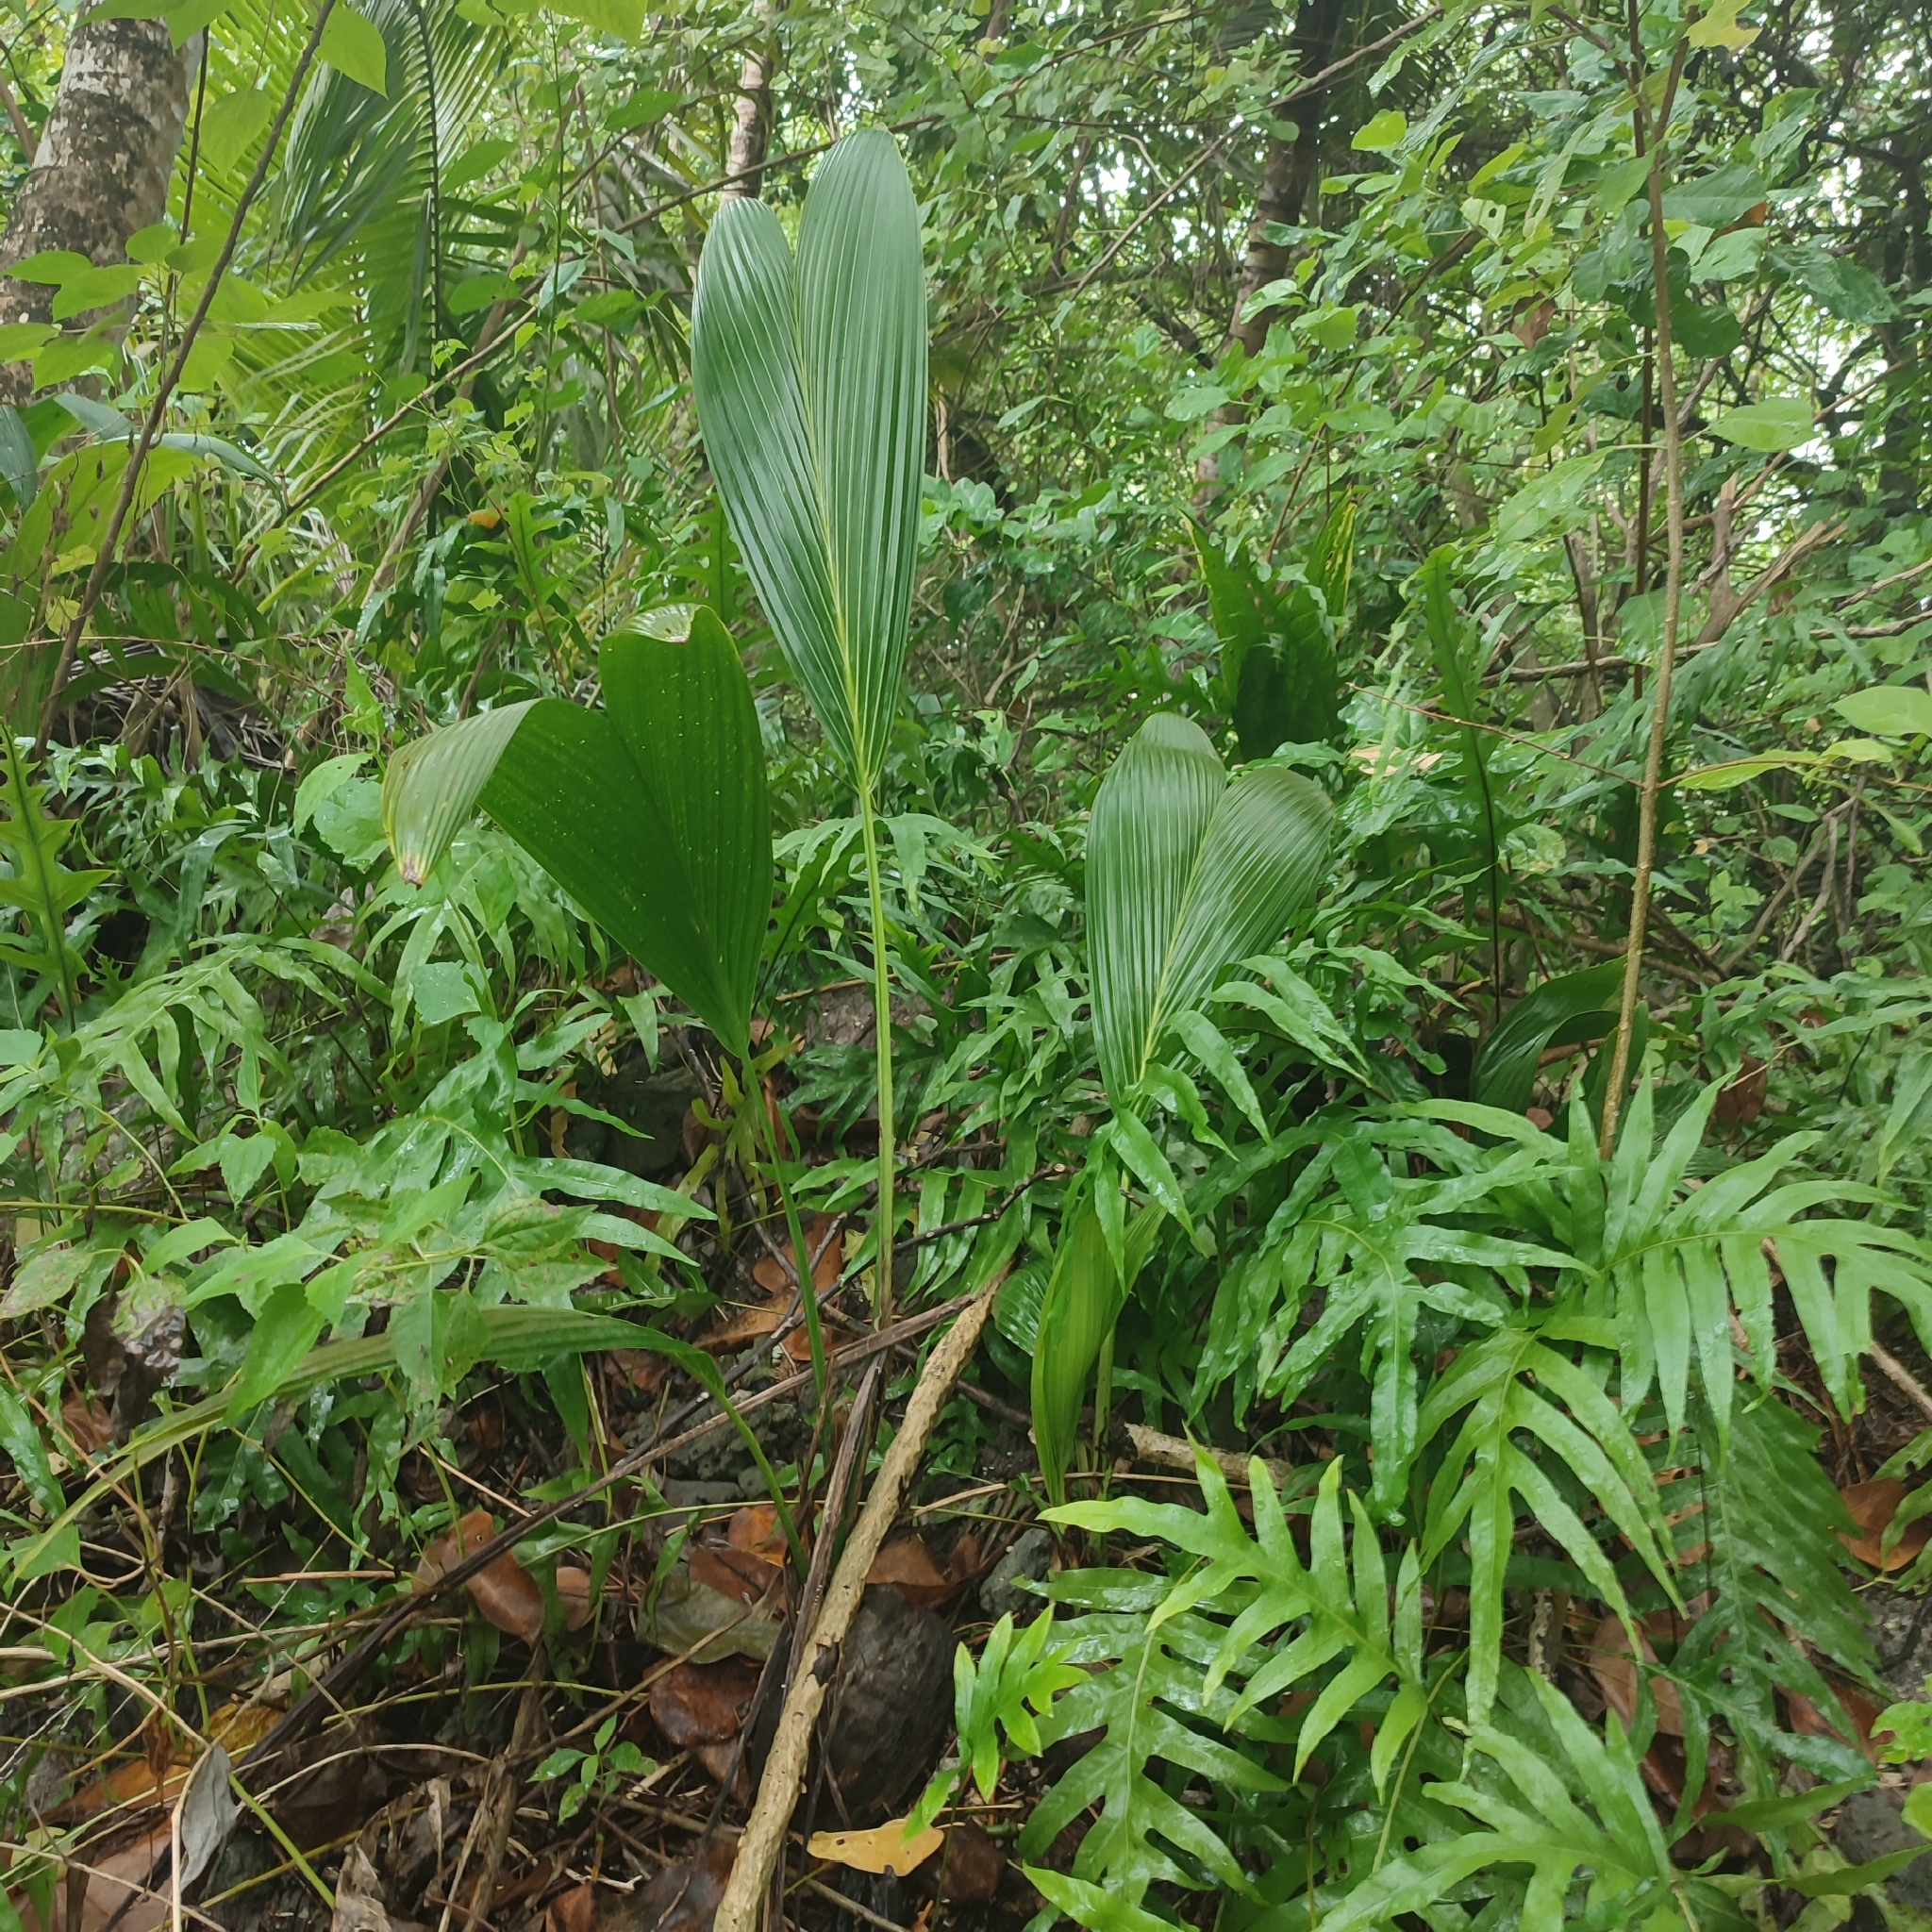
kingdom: Plantae
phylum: Tracheophyta
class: Liliopsida
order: Arecales
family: Arecaceae
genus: Cocos
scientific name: Cocos nucifera
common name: Coconut palm
